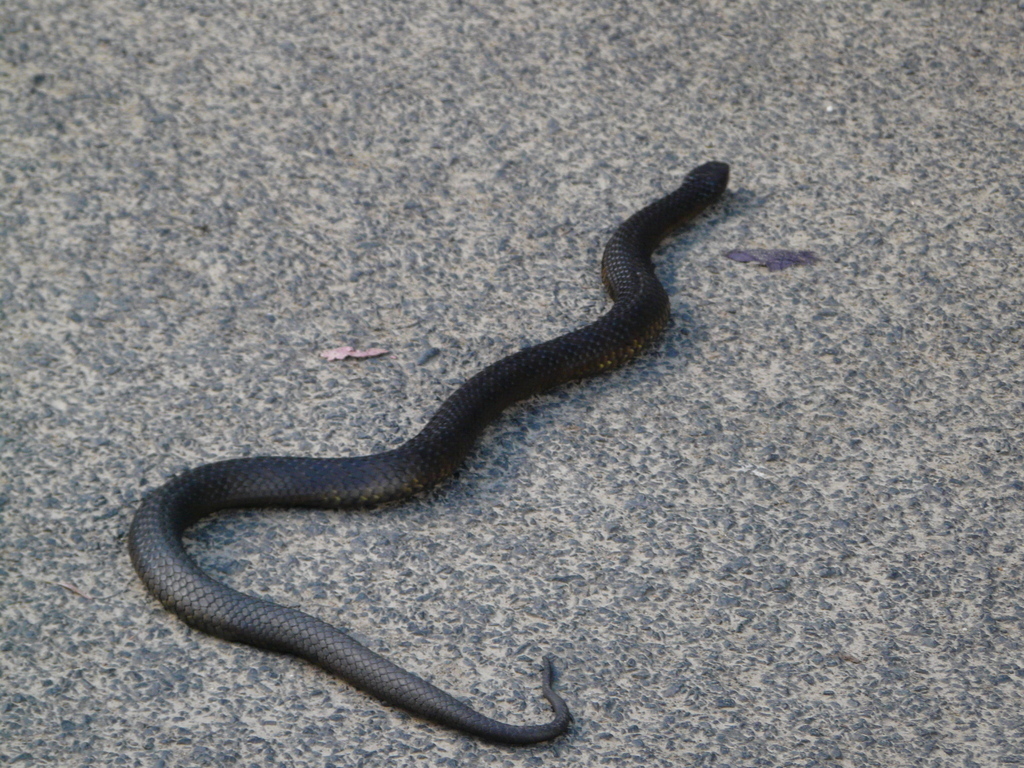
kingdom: Animalia
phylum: Chordata
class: Squamata
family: Elapidae
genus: Notechis
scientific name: Notechis scutatus
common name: Mainland tiger snake
